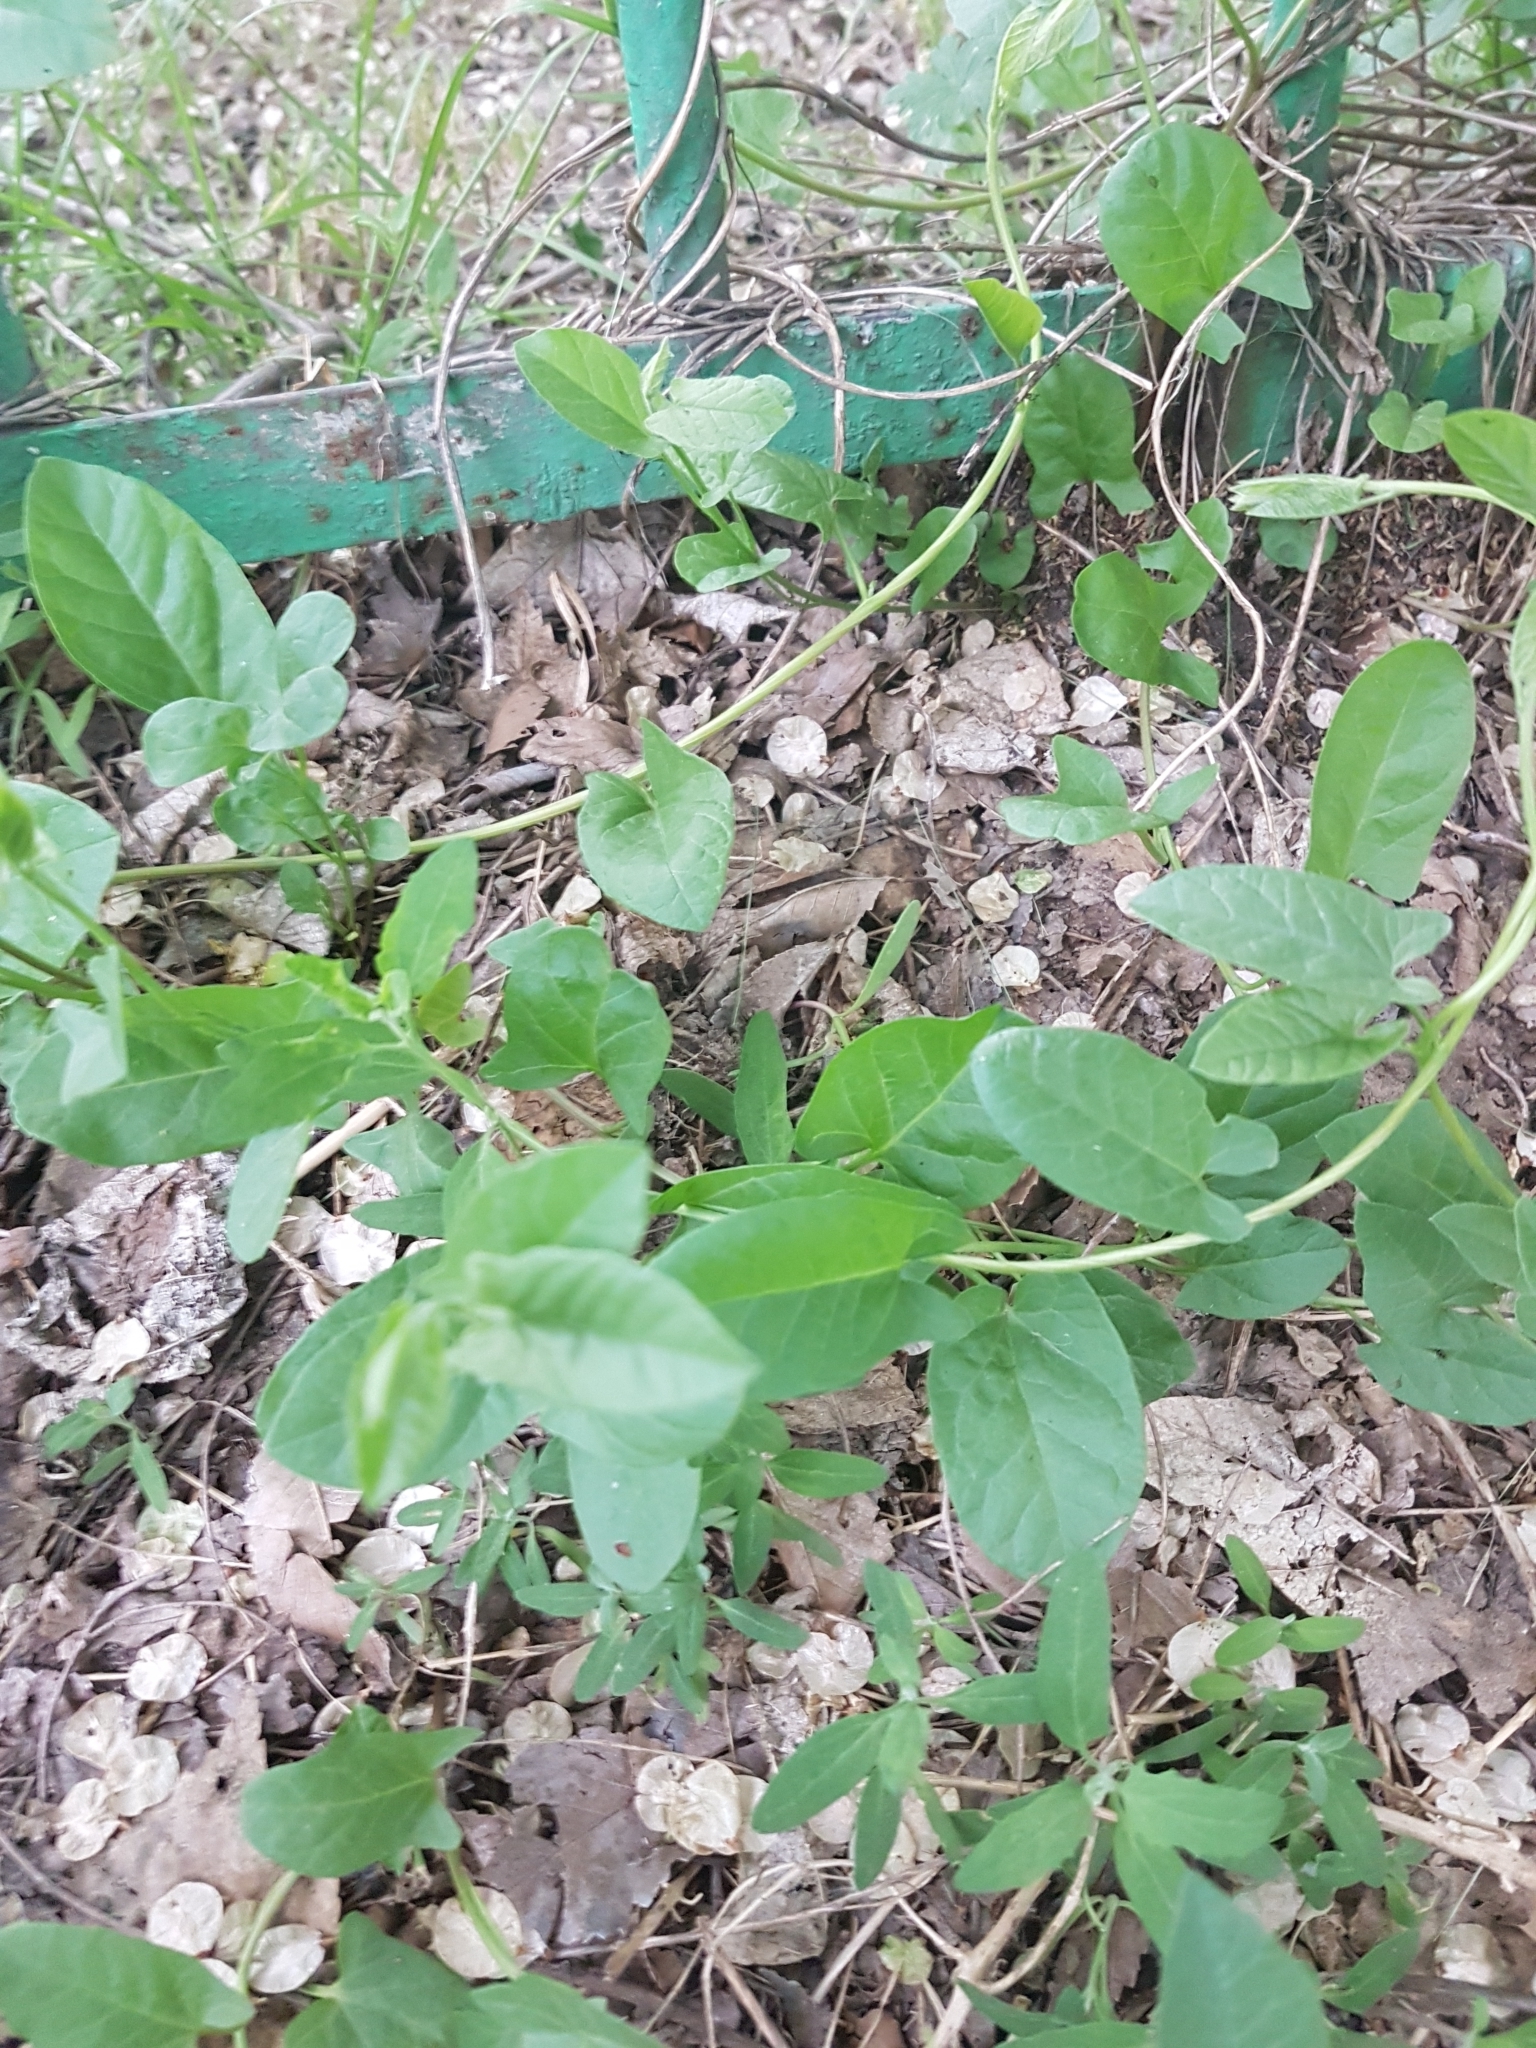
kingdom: Plantae
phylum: Tracheophyta
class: Magnoliopsida
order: Solanales
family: Convolvulaceae
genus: Convolvulus
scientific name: Convolvulus arvensis
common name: Field bindweed
